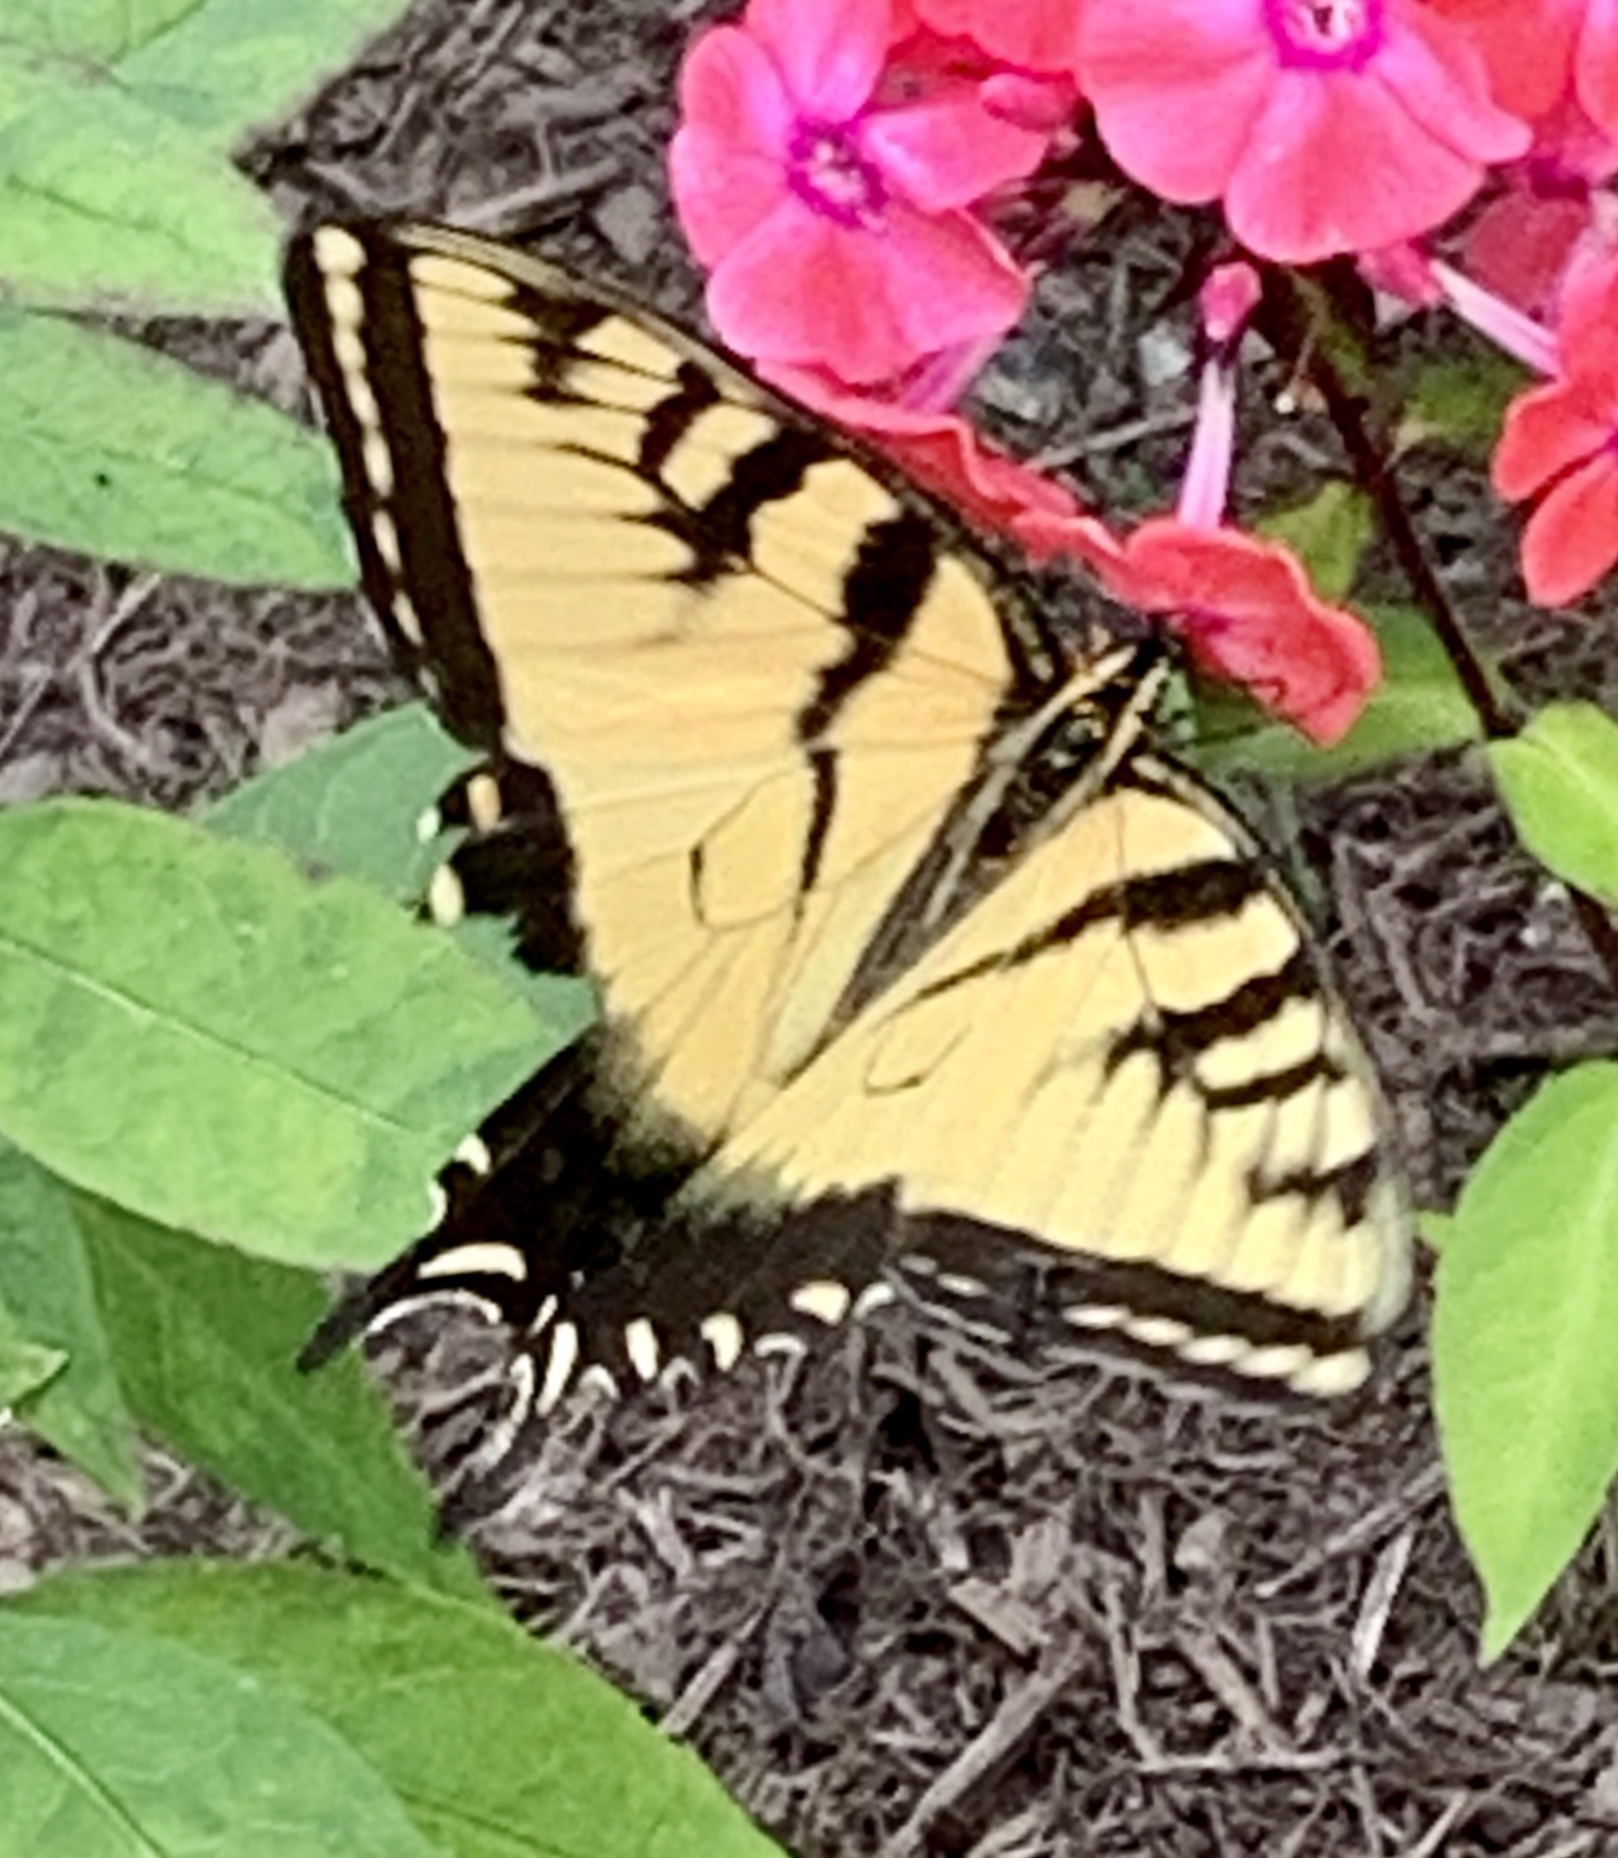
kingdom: Animalia
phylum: Arthropoda
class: Insecta
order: Lepidoptera
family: Papilionidae
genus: Papilio
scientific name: Papilio glaucus
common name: Tiger swallowtail
